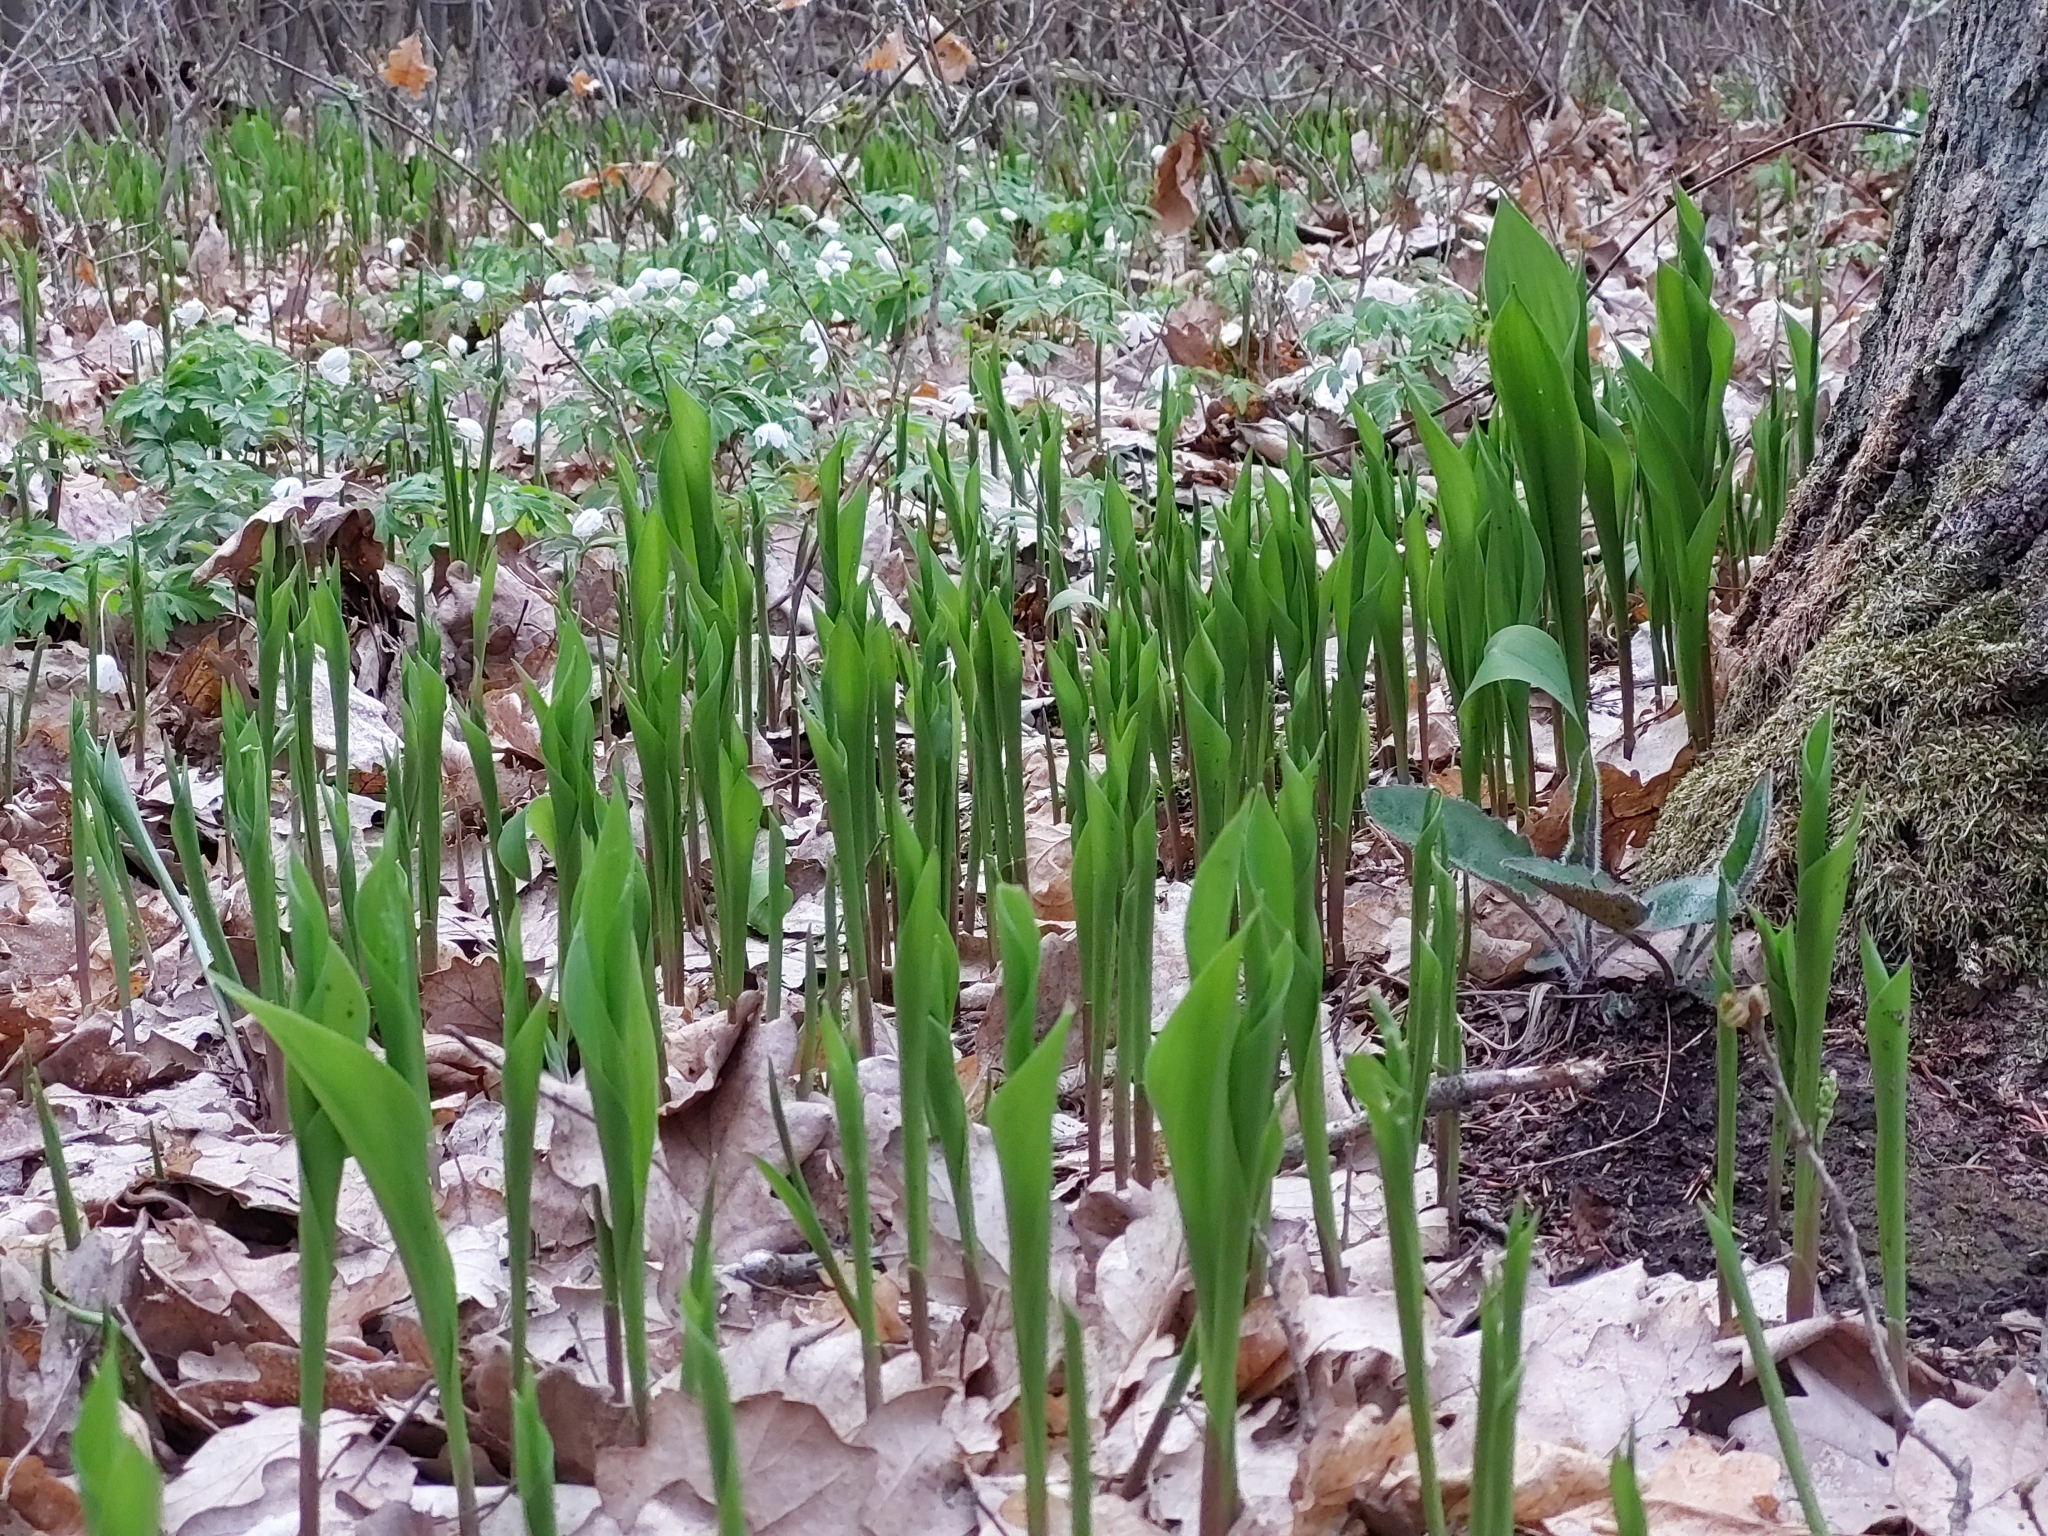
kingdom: Plantae
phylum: Tracheophyta
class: Liliopsida
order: Asparagales
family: Asparagaceae
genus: Convallaria
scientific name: Convallaria majalis
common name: Lily-of-the-valley
